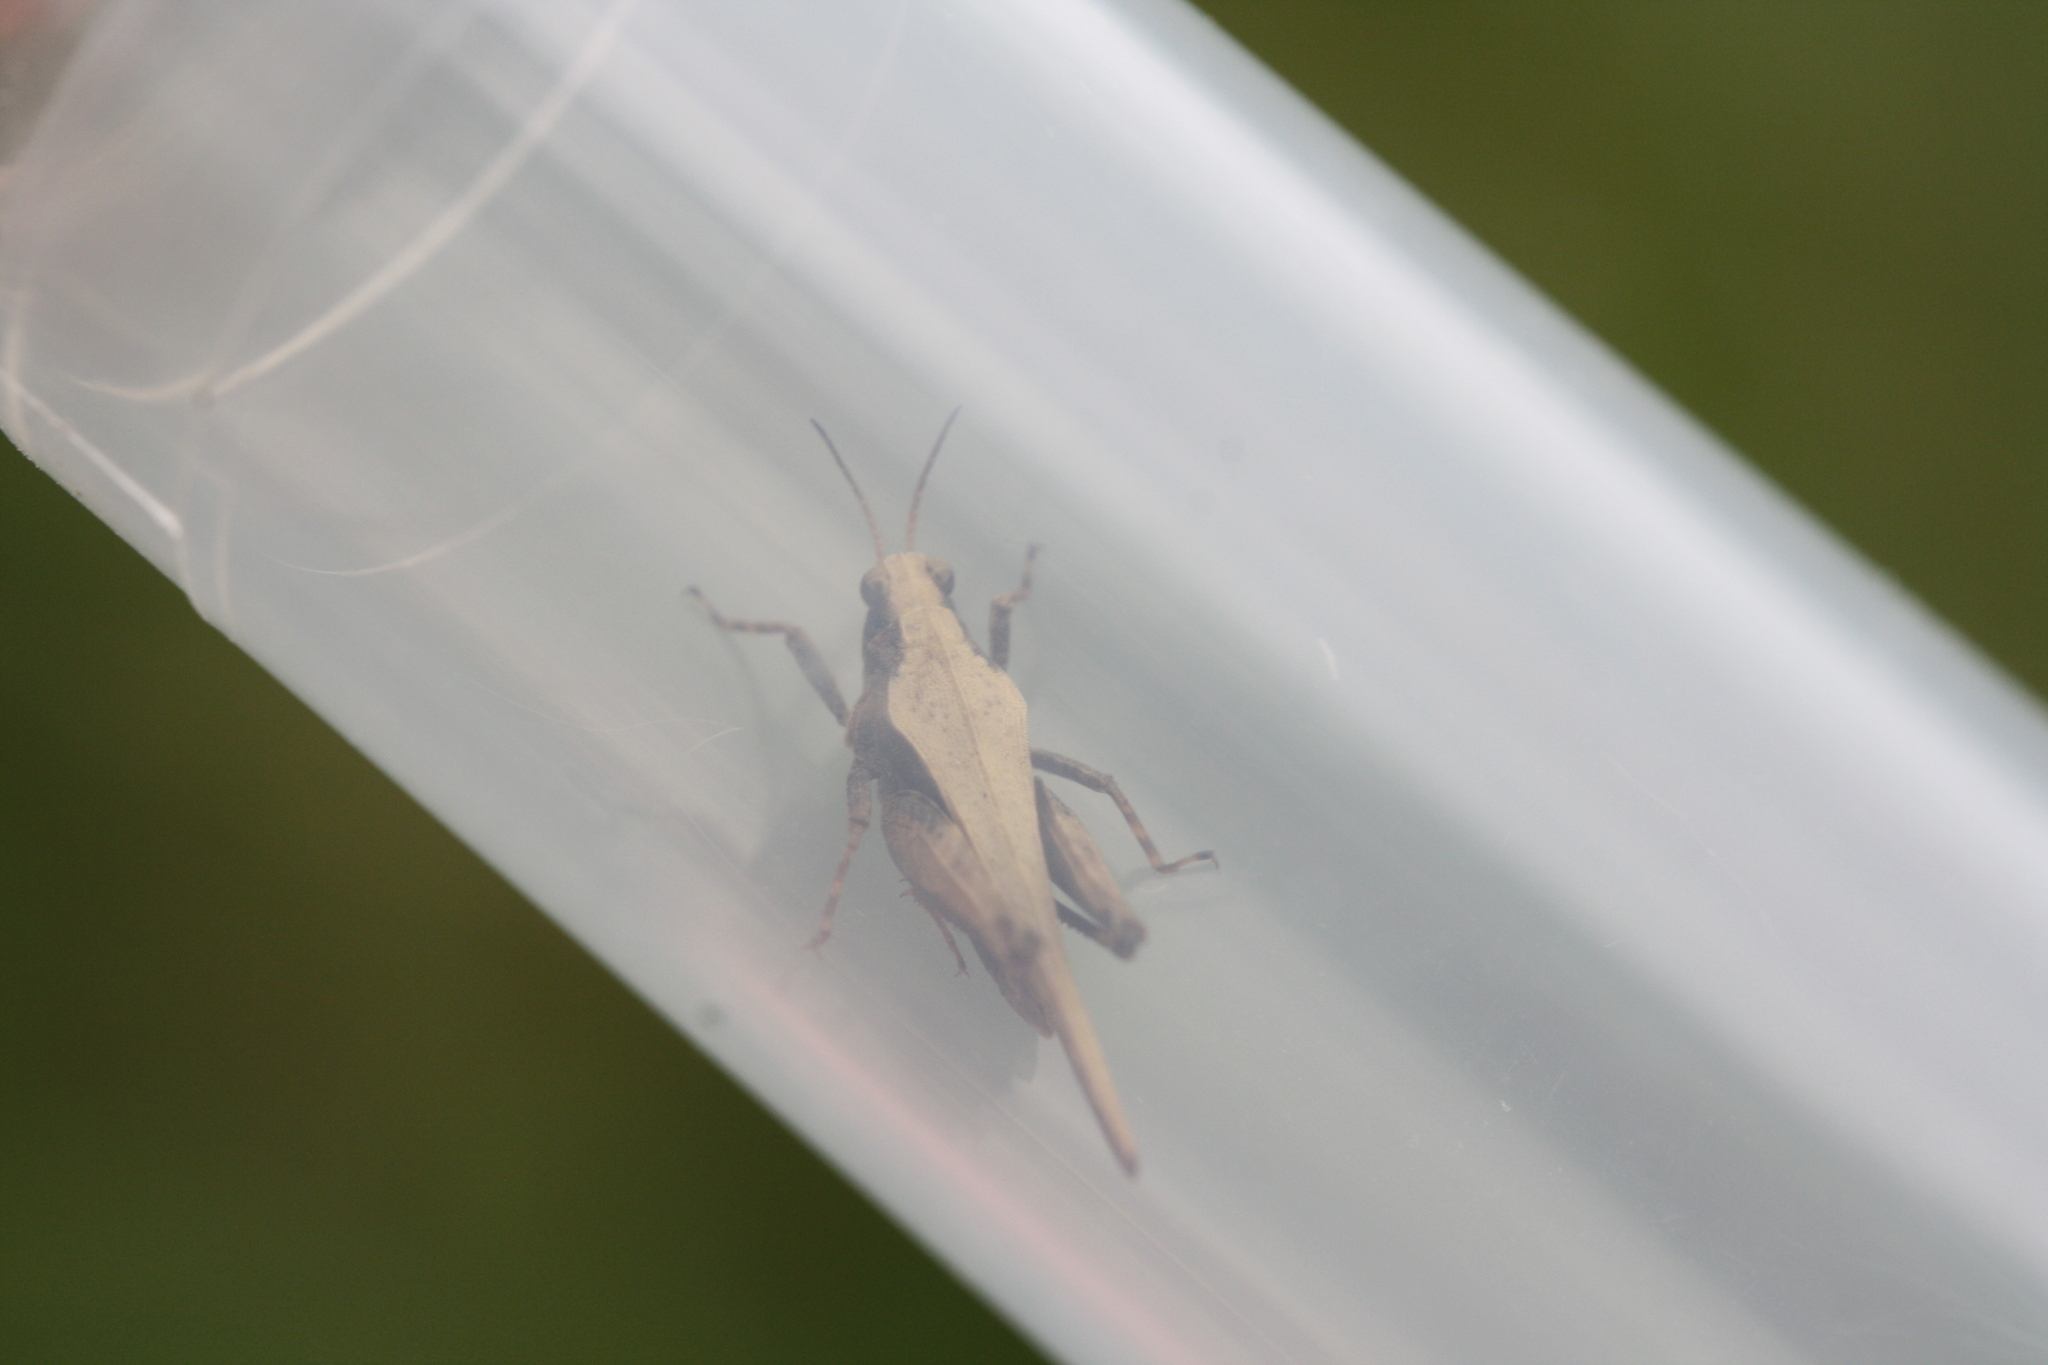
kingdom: Animalia
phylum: Arthropoda
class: Insecta
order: Orthoptera
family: Tetrigidae
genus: Tetrix
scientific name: Tetrix subulata
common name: Slender ground-hopper
